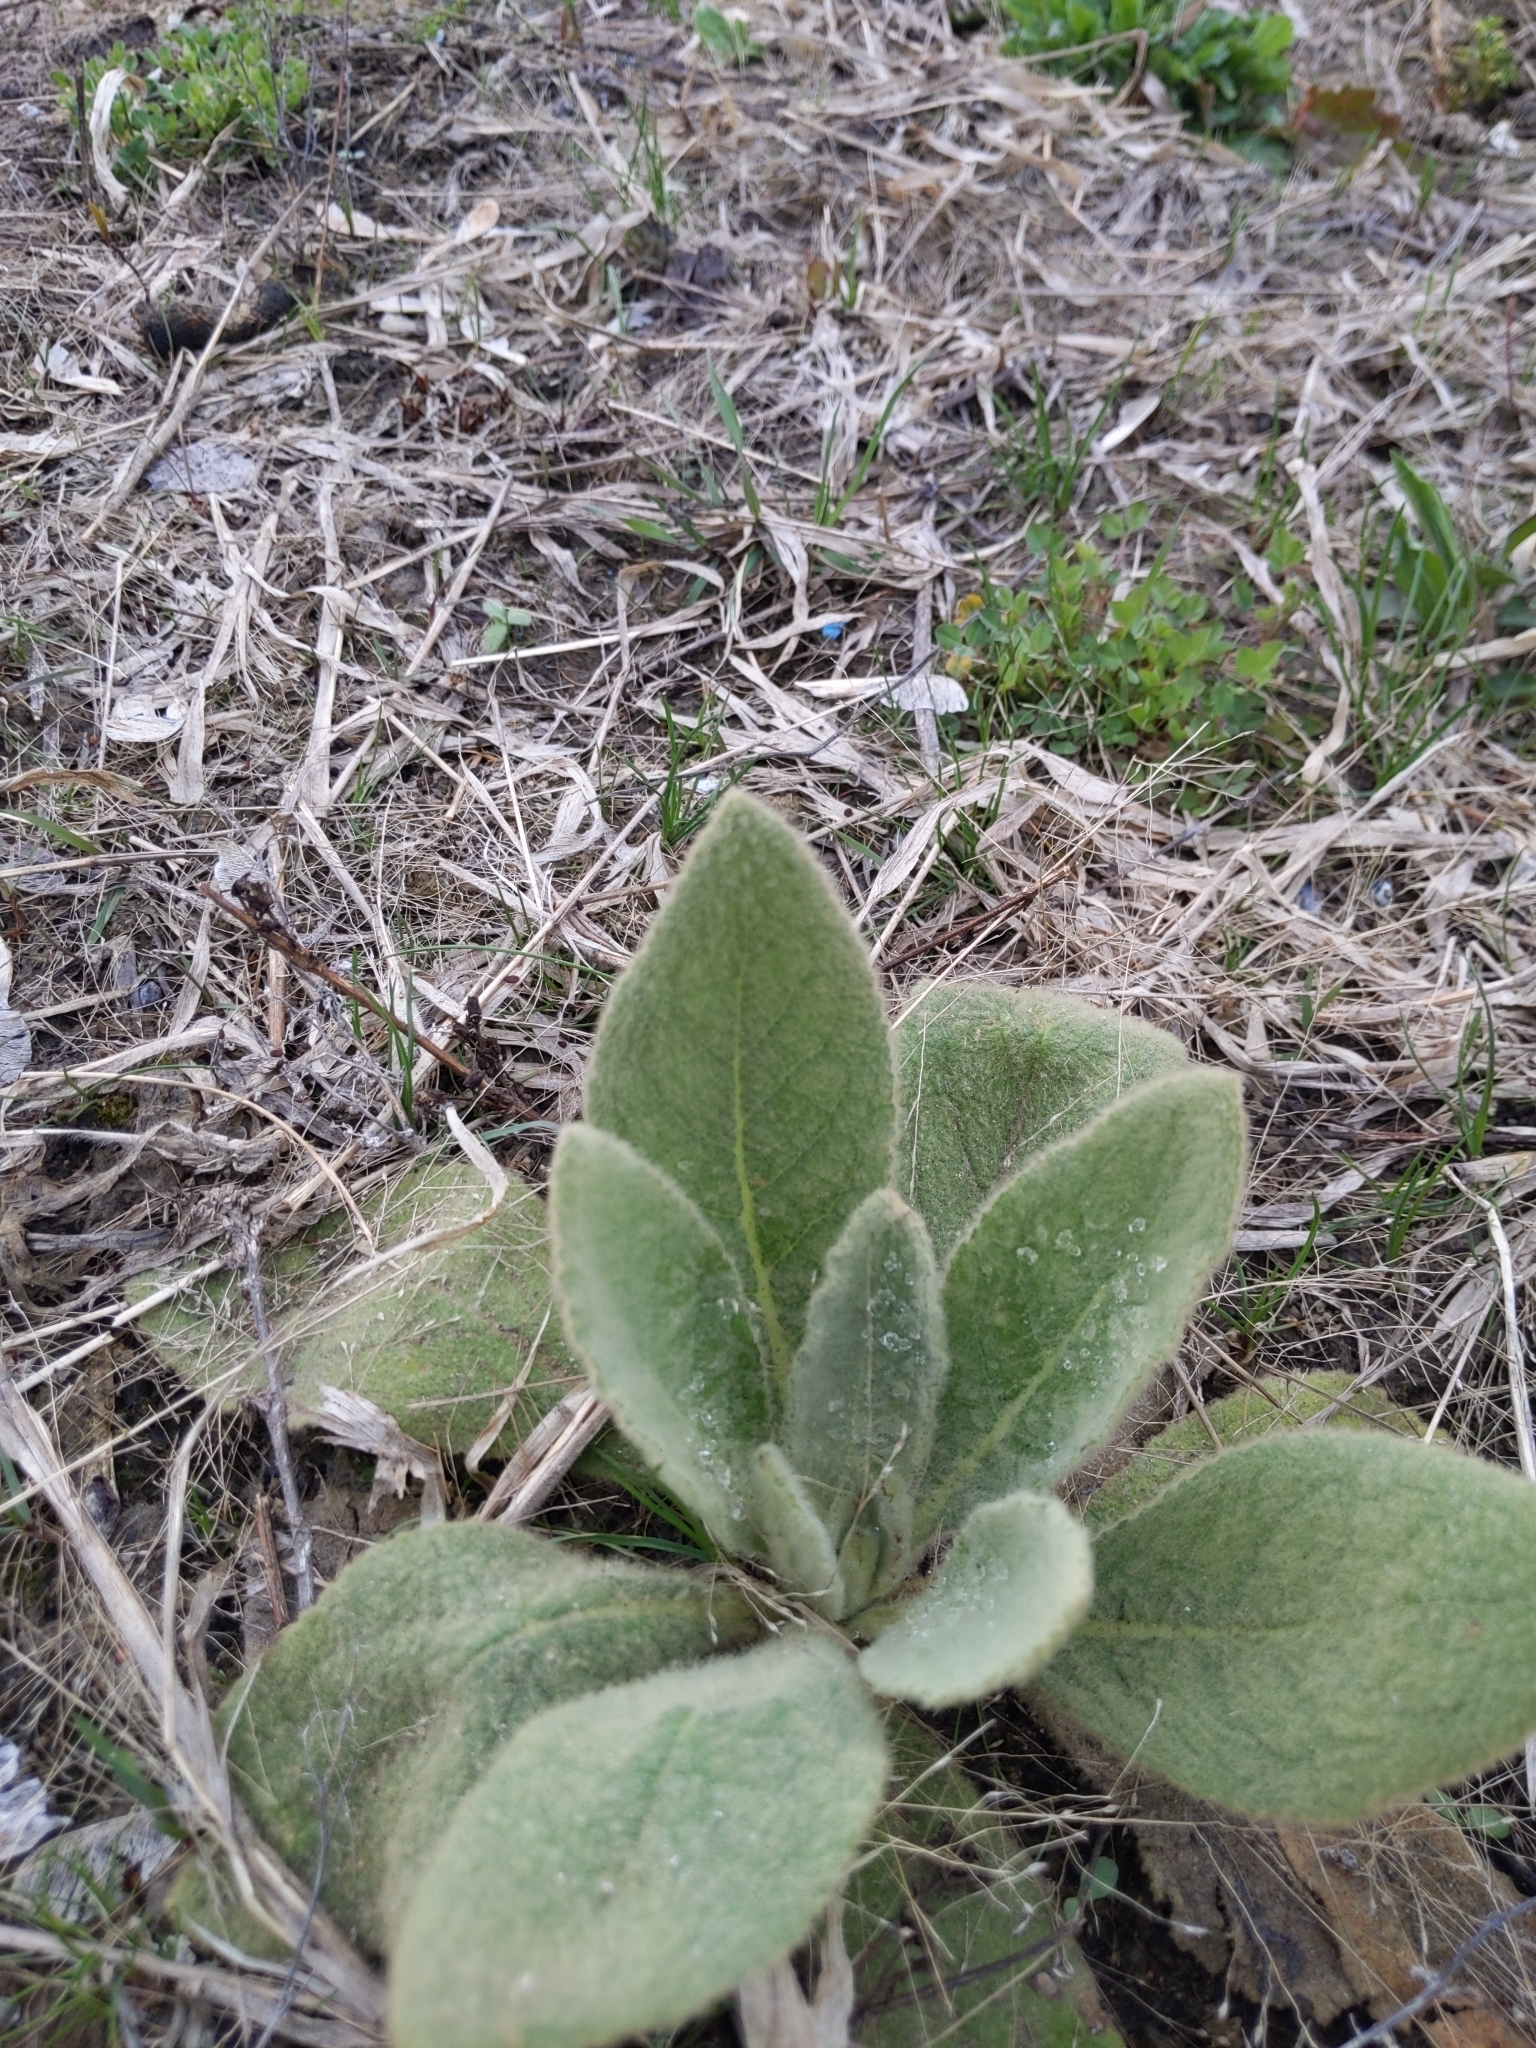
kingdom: Plantae
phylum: Tracheophyta
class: Magnoliopsida
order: Lamiales
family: Scrophulariaceae
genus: Verbascum
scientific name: Verbascum thapsus
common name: Common mullein
